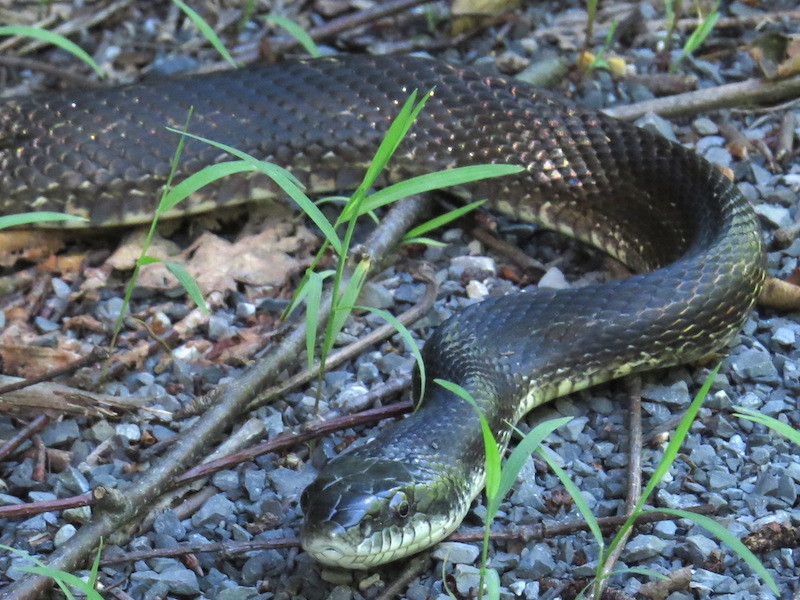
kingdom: Animalia
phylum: Chordata
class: Squamata
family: Colubridae
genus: Pantherophis
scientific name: Pantherophis
